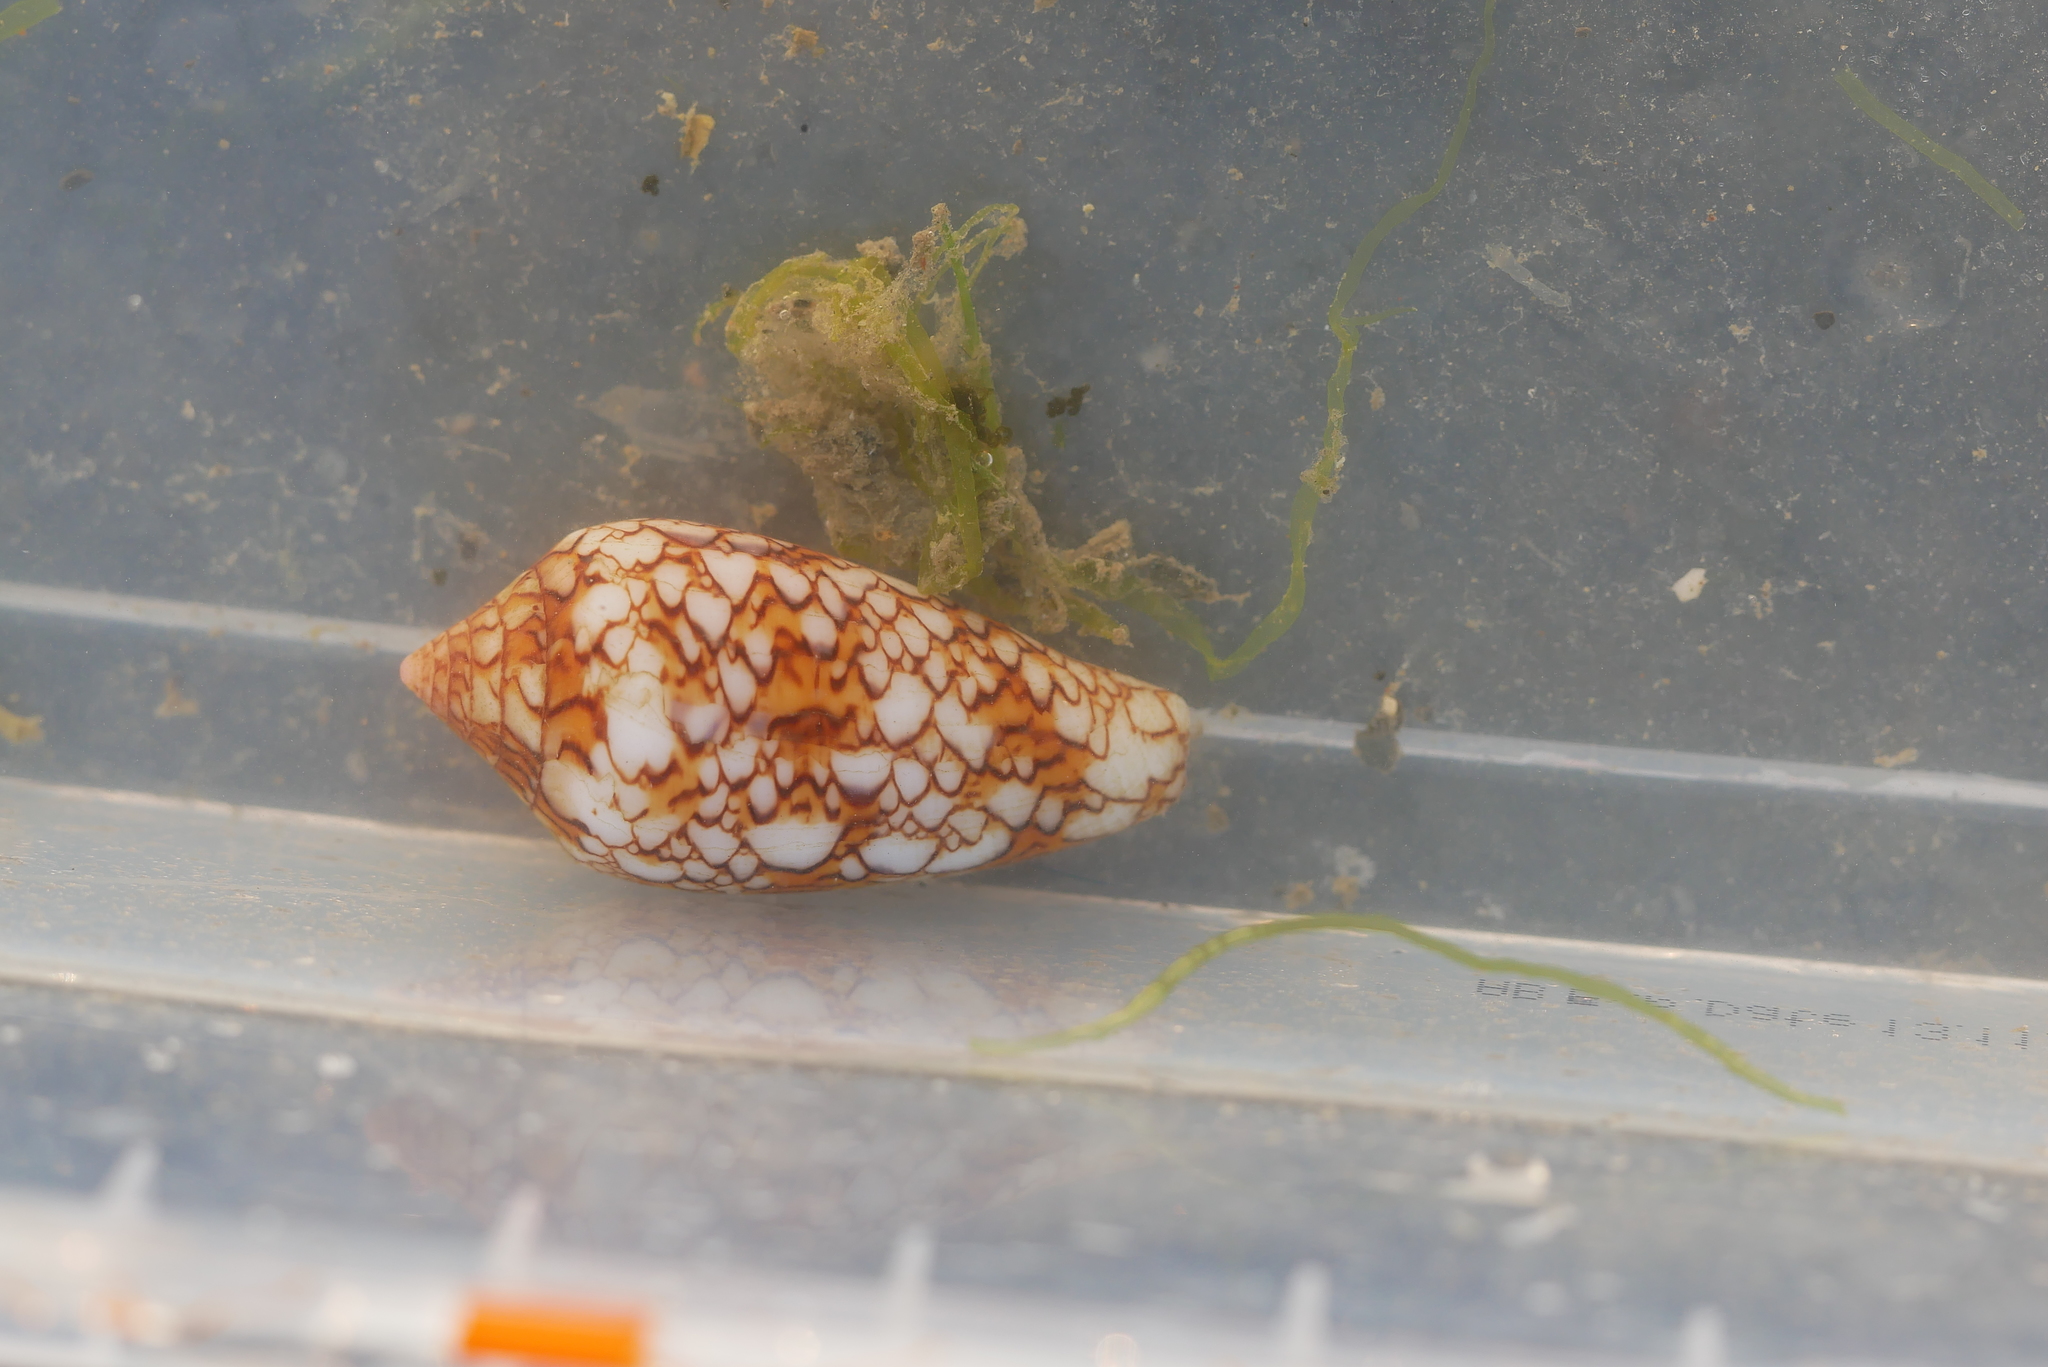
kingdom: Animalia
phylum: Mollusca
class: Gastropoda
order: Neogastropoda
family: Conidae
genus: Conus
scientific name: Conus textile
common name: Cloth-of-gold cone
